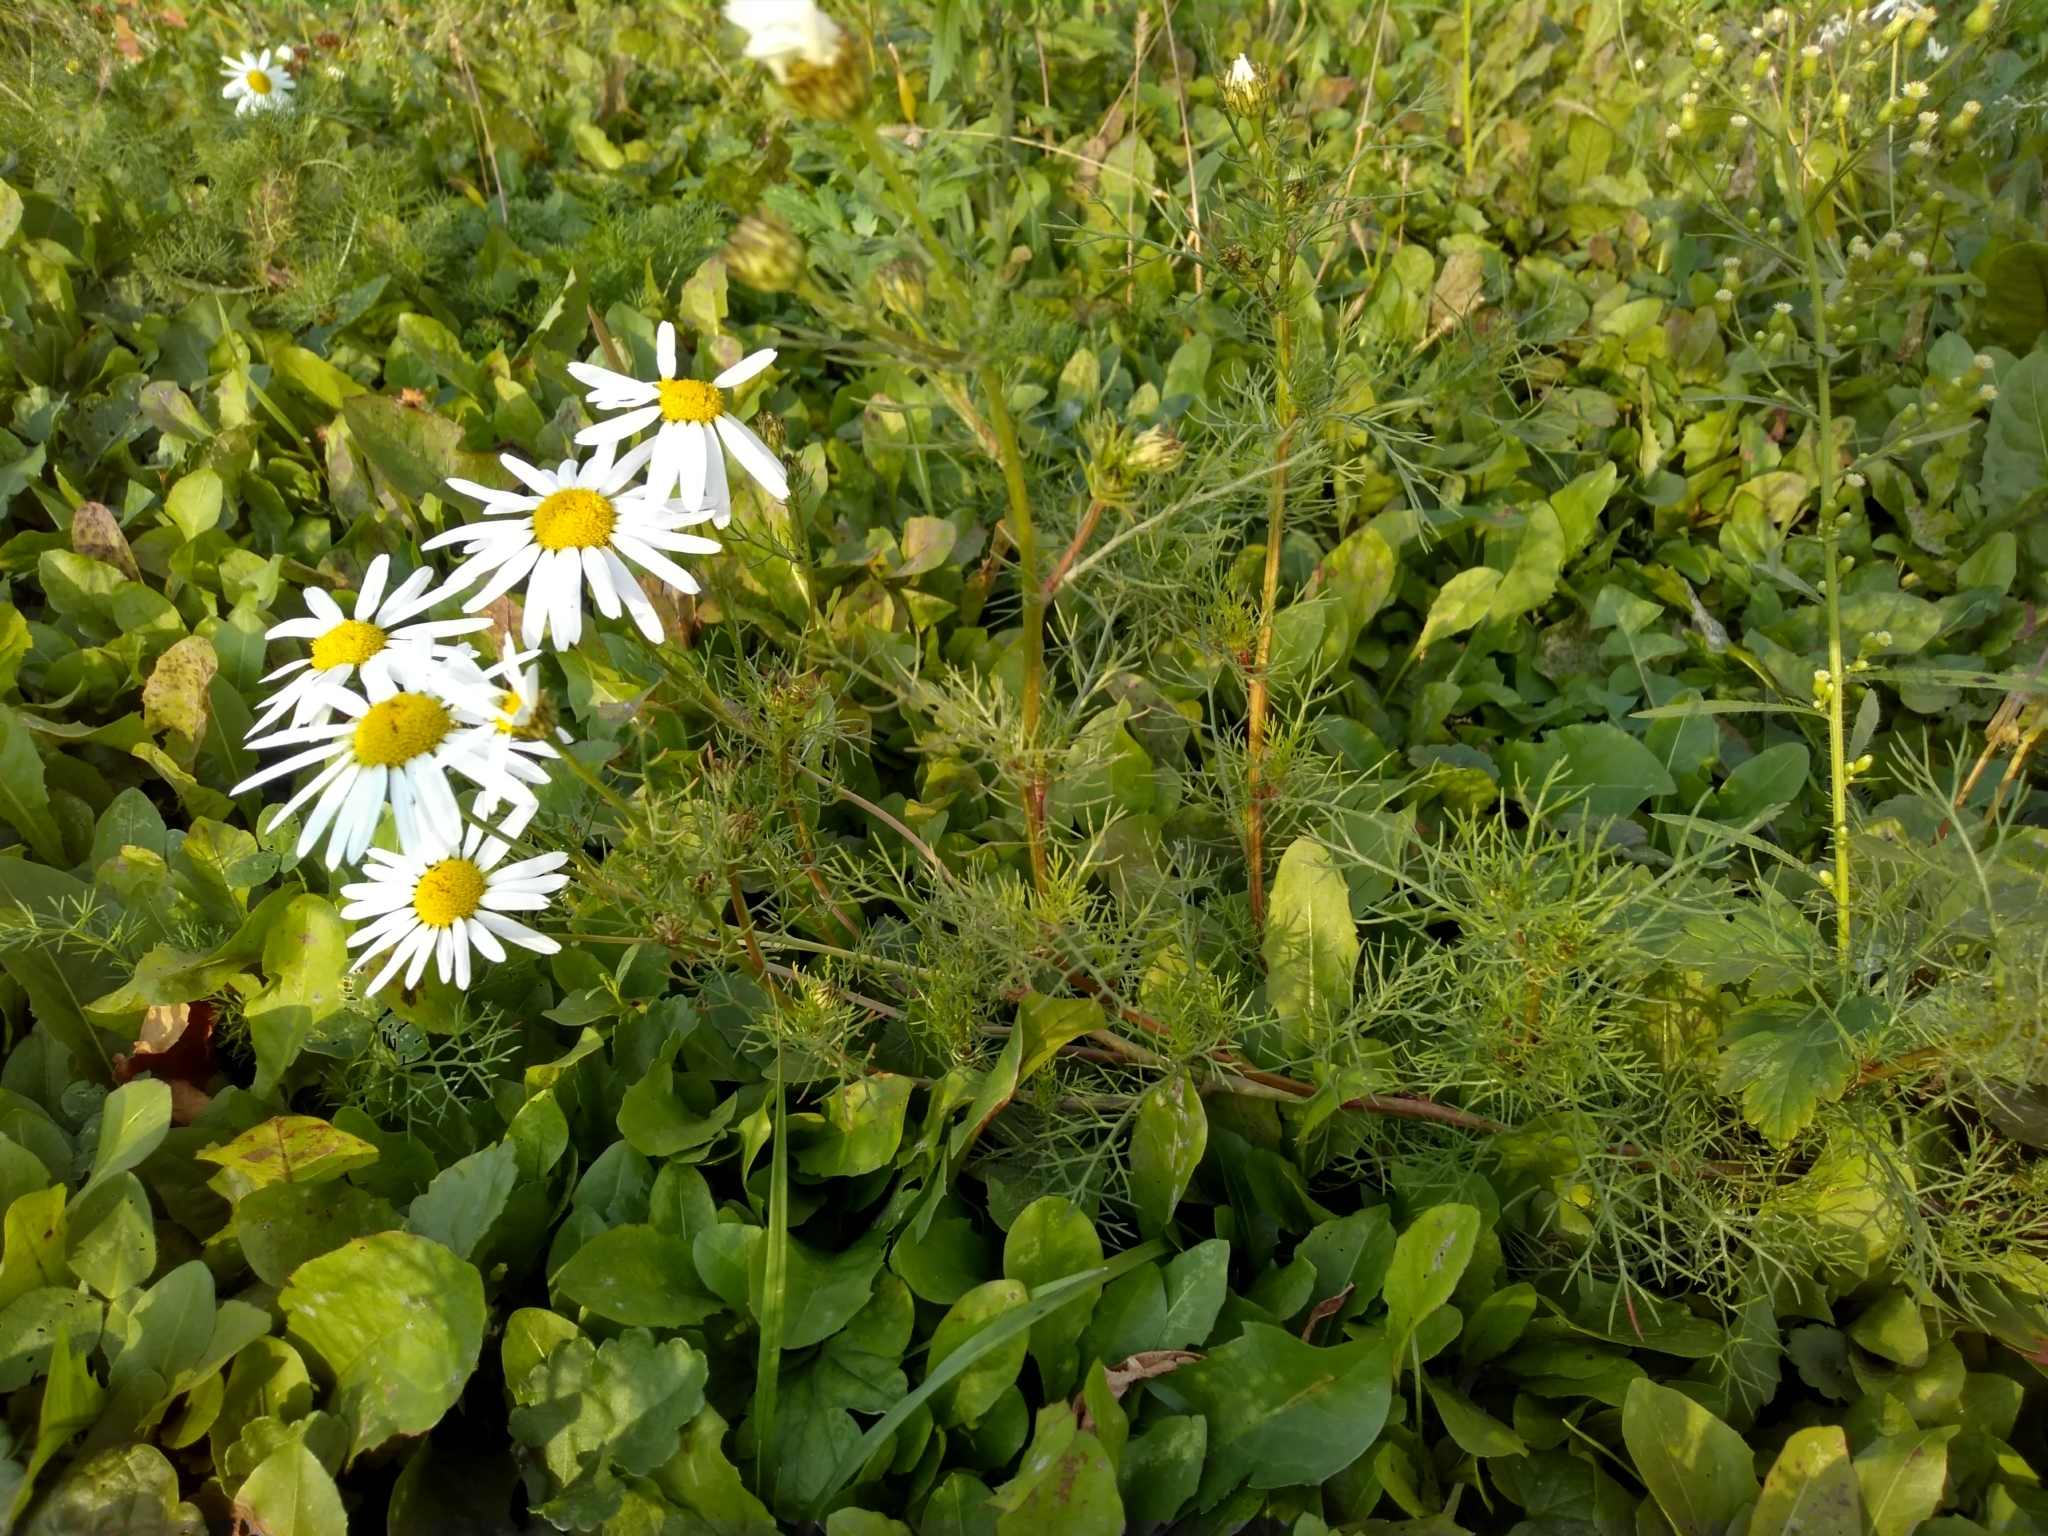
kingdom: Plantae
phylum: Tracheophyta
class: Magnoliopsida
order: Asterales
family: Asteraceae
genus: Tripleurospermum
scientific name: Tripleurospermum inodorum
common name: Scentless mayweed
